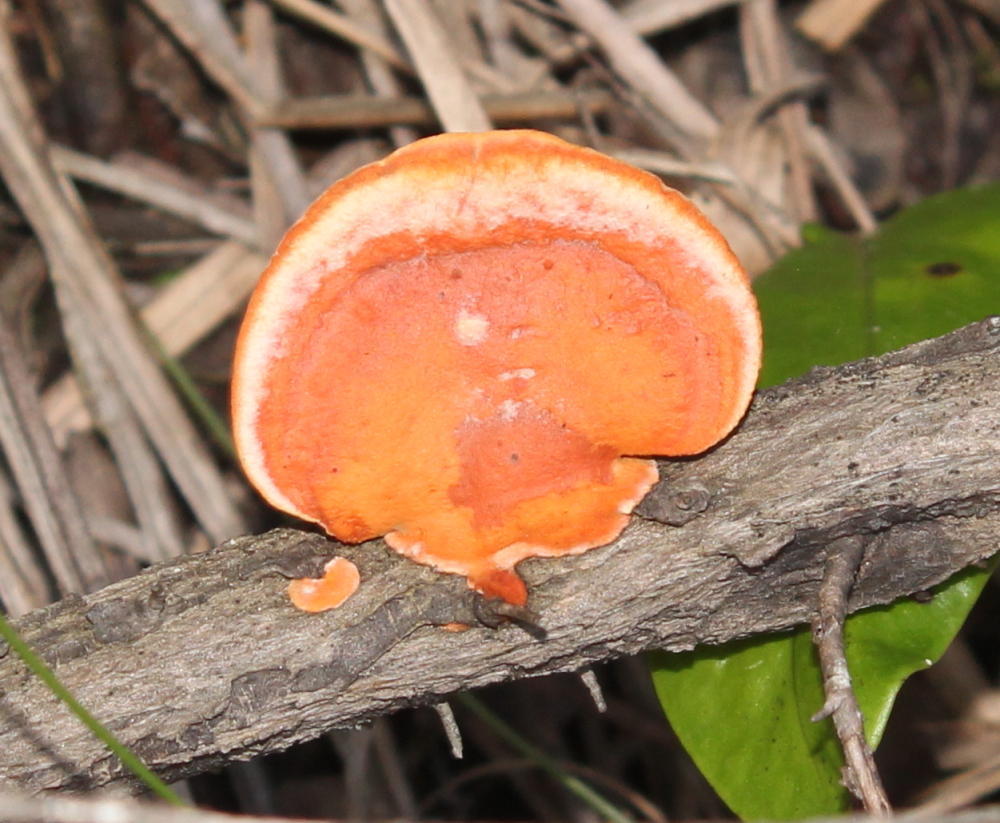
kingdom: Fungi
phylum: Basidiomycota
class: Agaricomycetes
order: Polyporales
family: Polyporaceae
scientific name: Polyporaceae
